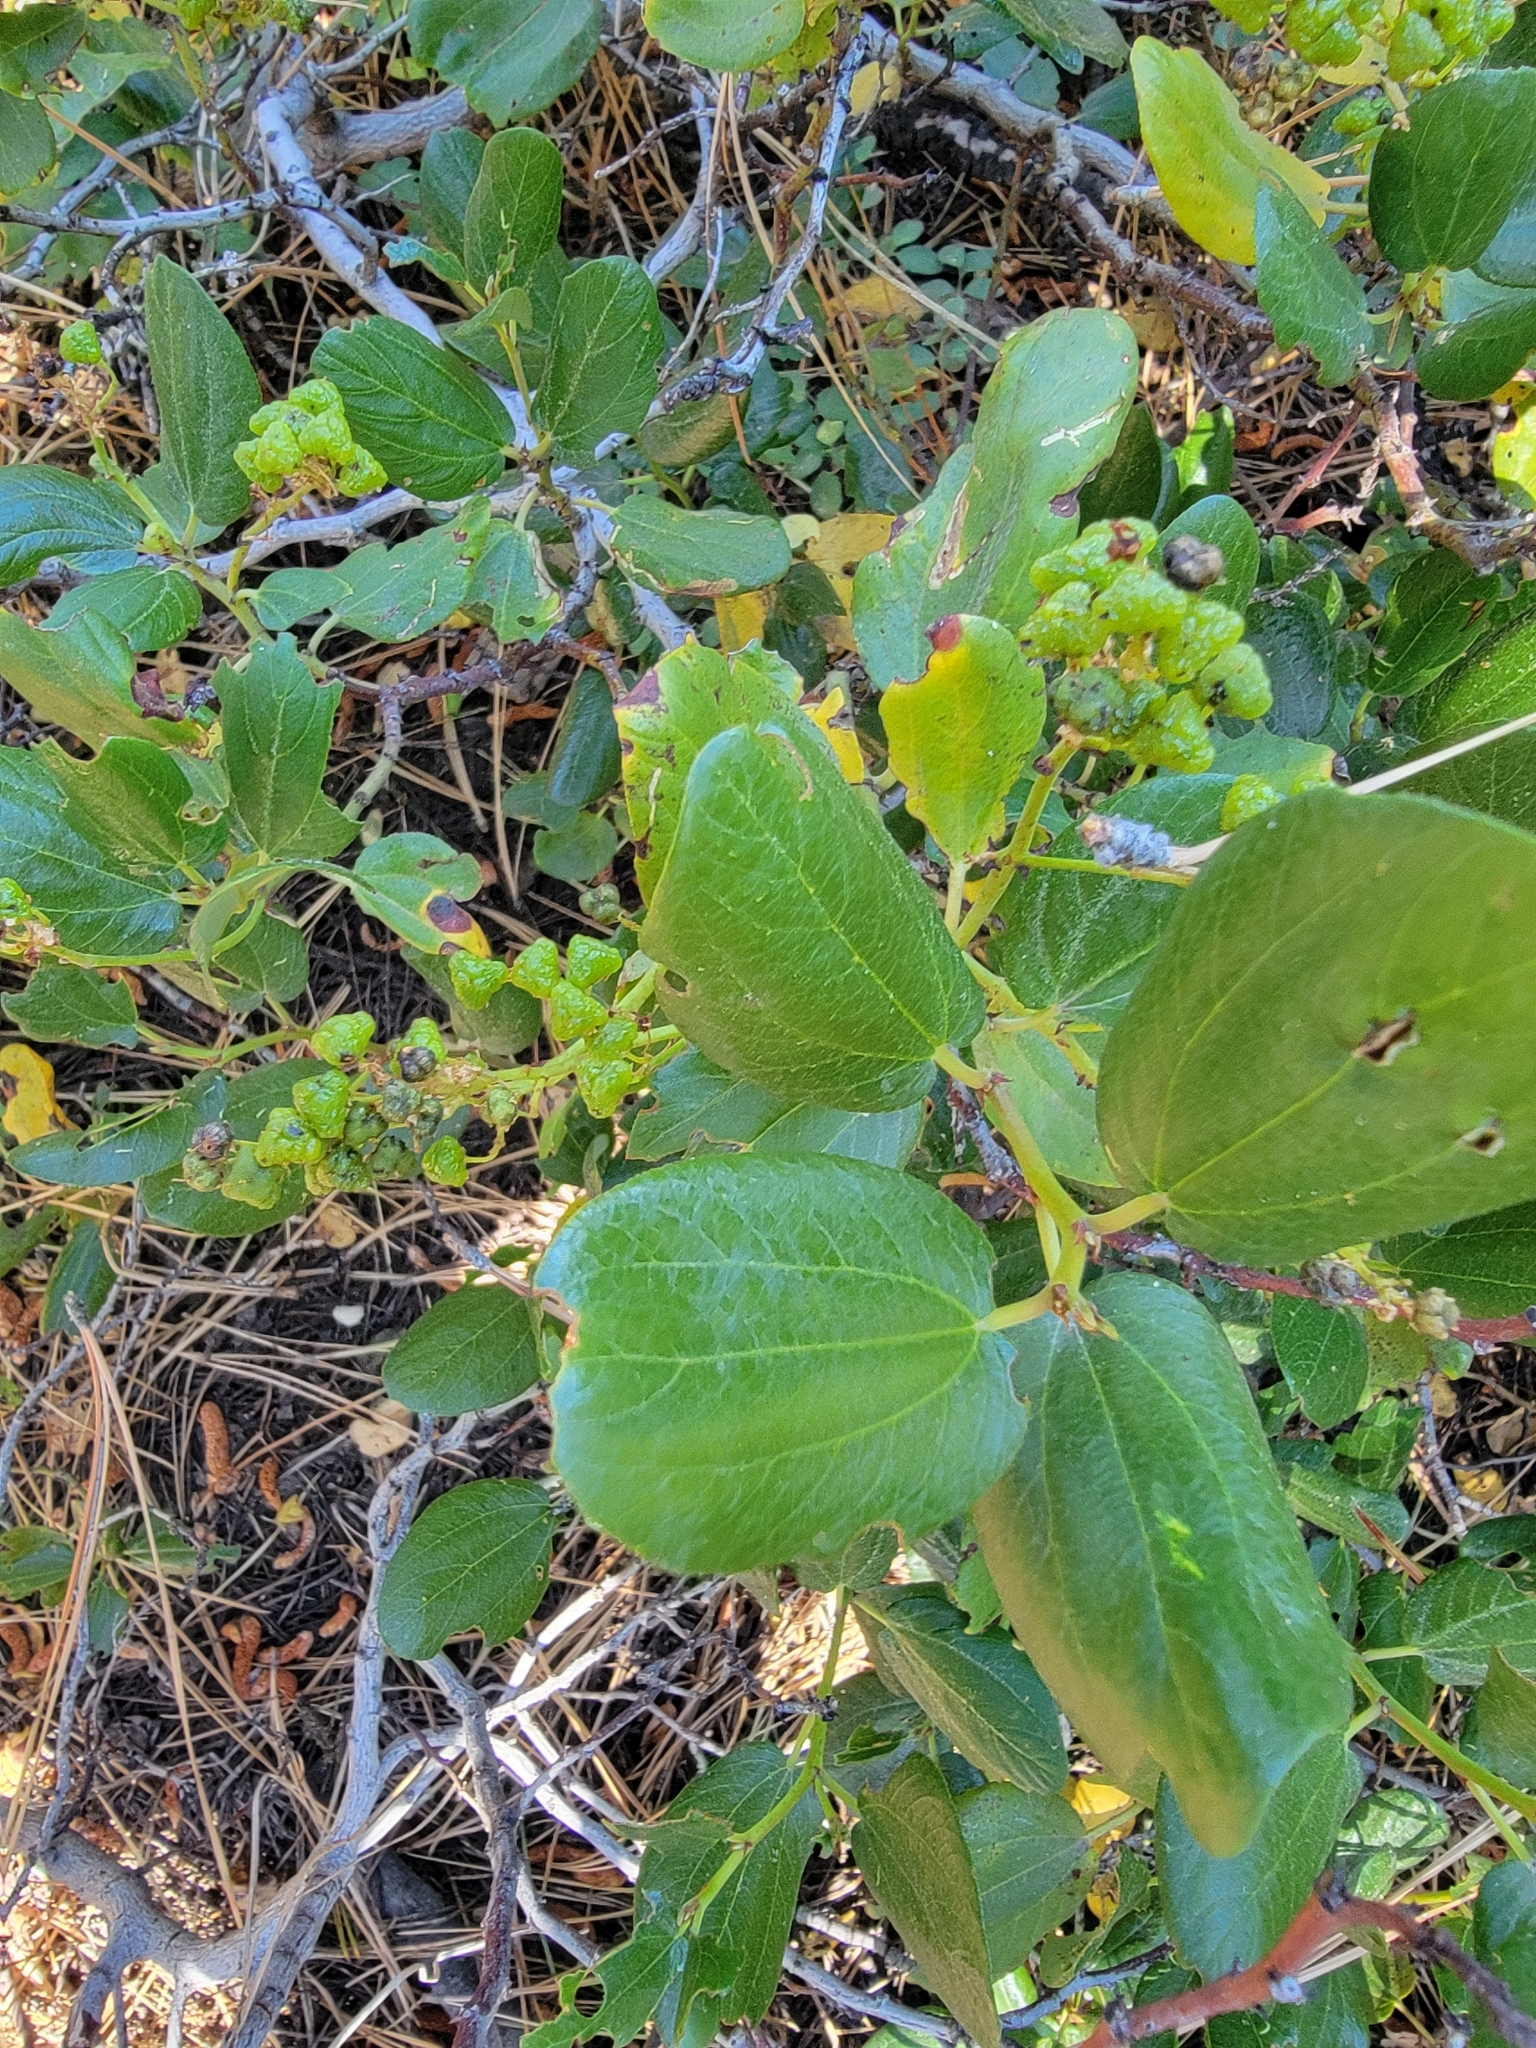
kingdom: Plantae
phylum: Tracheophyta
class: Magnoliopsida
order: Rosales
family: Rhamnaceae
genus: Ceanothus
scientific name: Ceanothus velutinus
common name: Snowbrush
